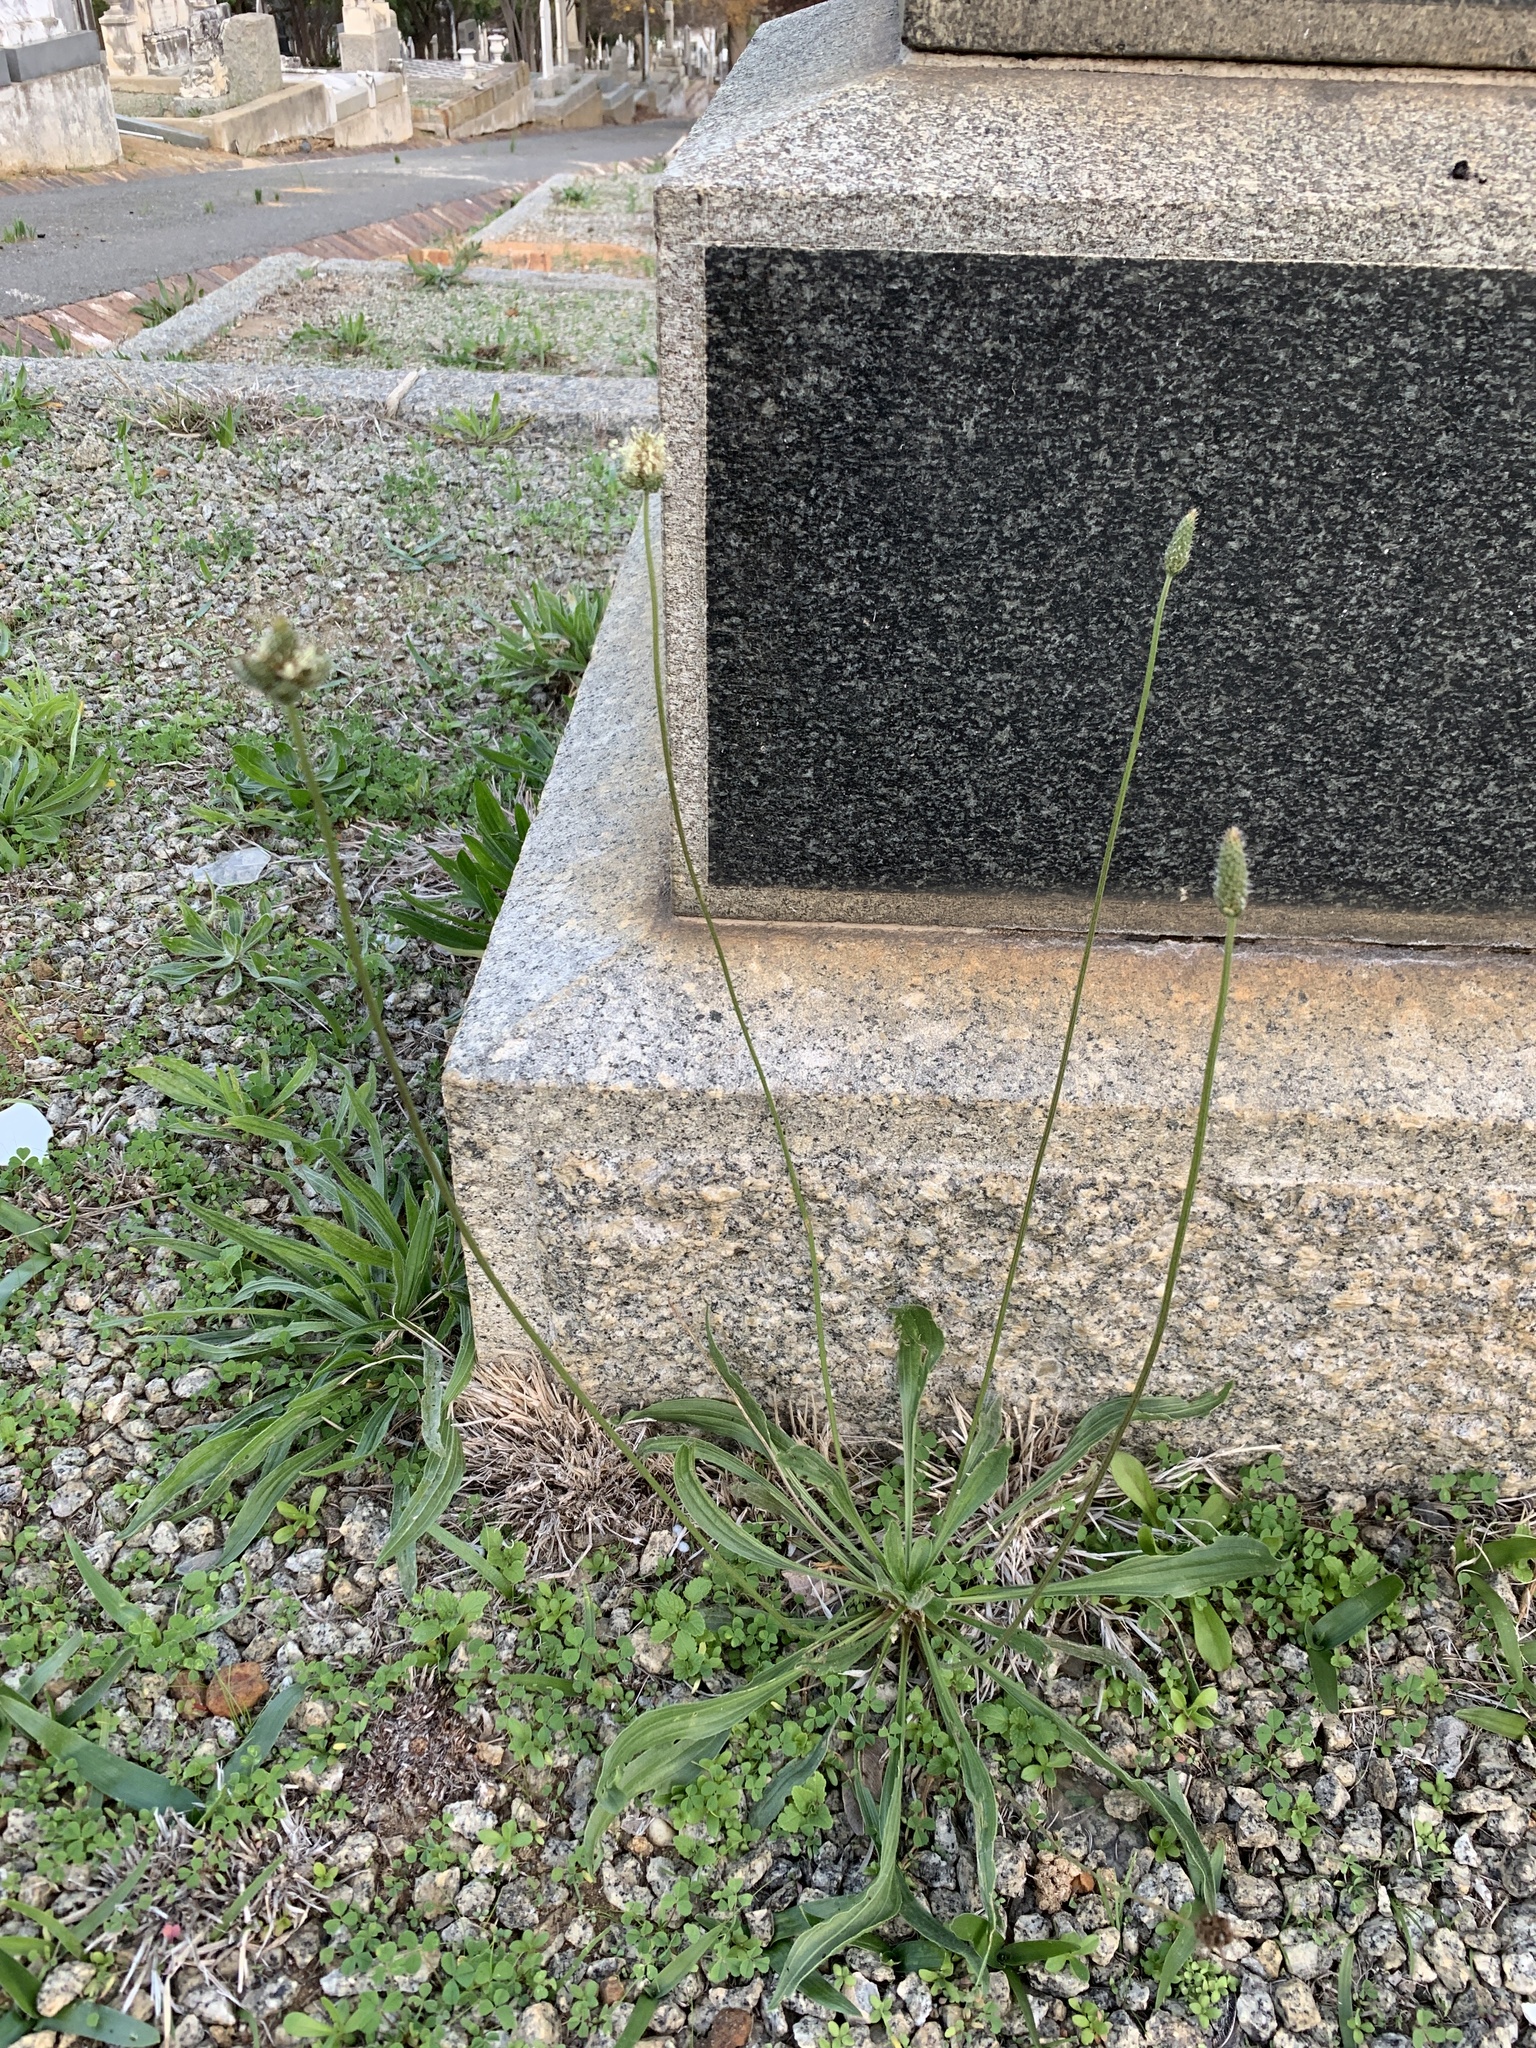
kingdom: Plantae
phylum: Tracheophyta
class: Magnoliopsida
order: Lamiales
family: Plantaginaceae
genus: Plantago
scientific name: Plantago lanceolata
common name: Ribwort plantain
